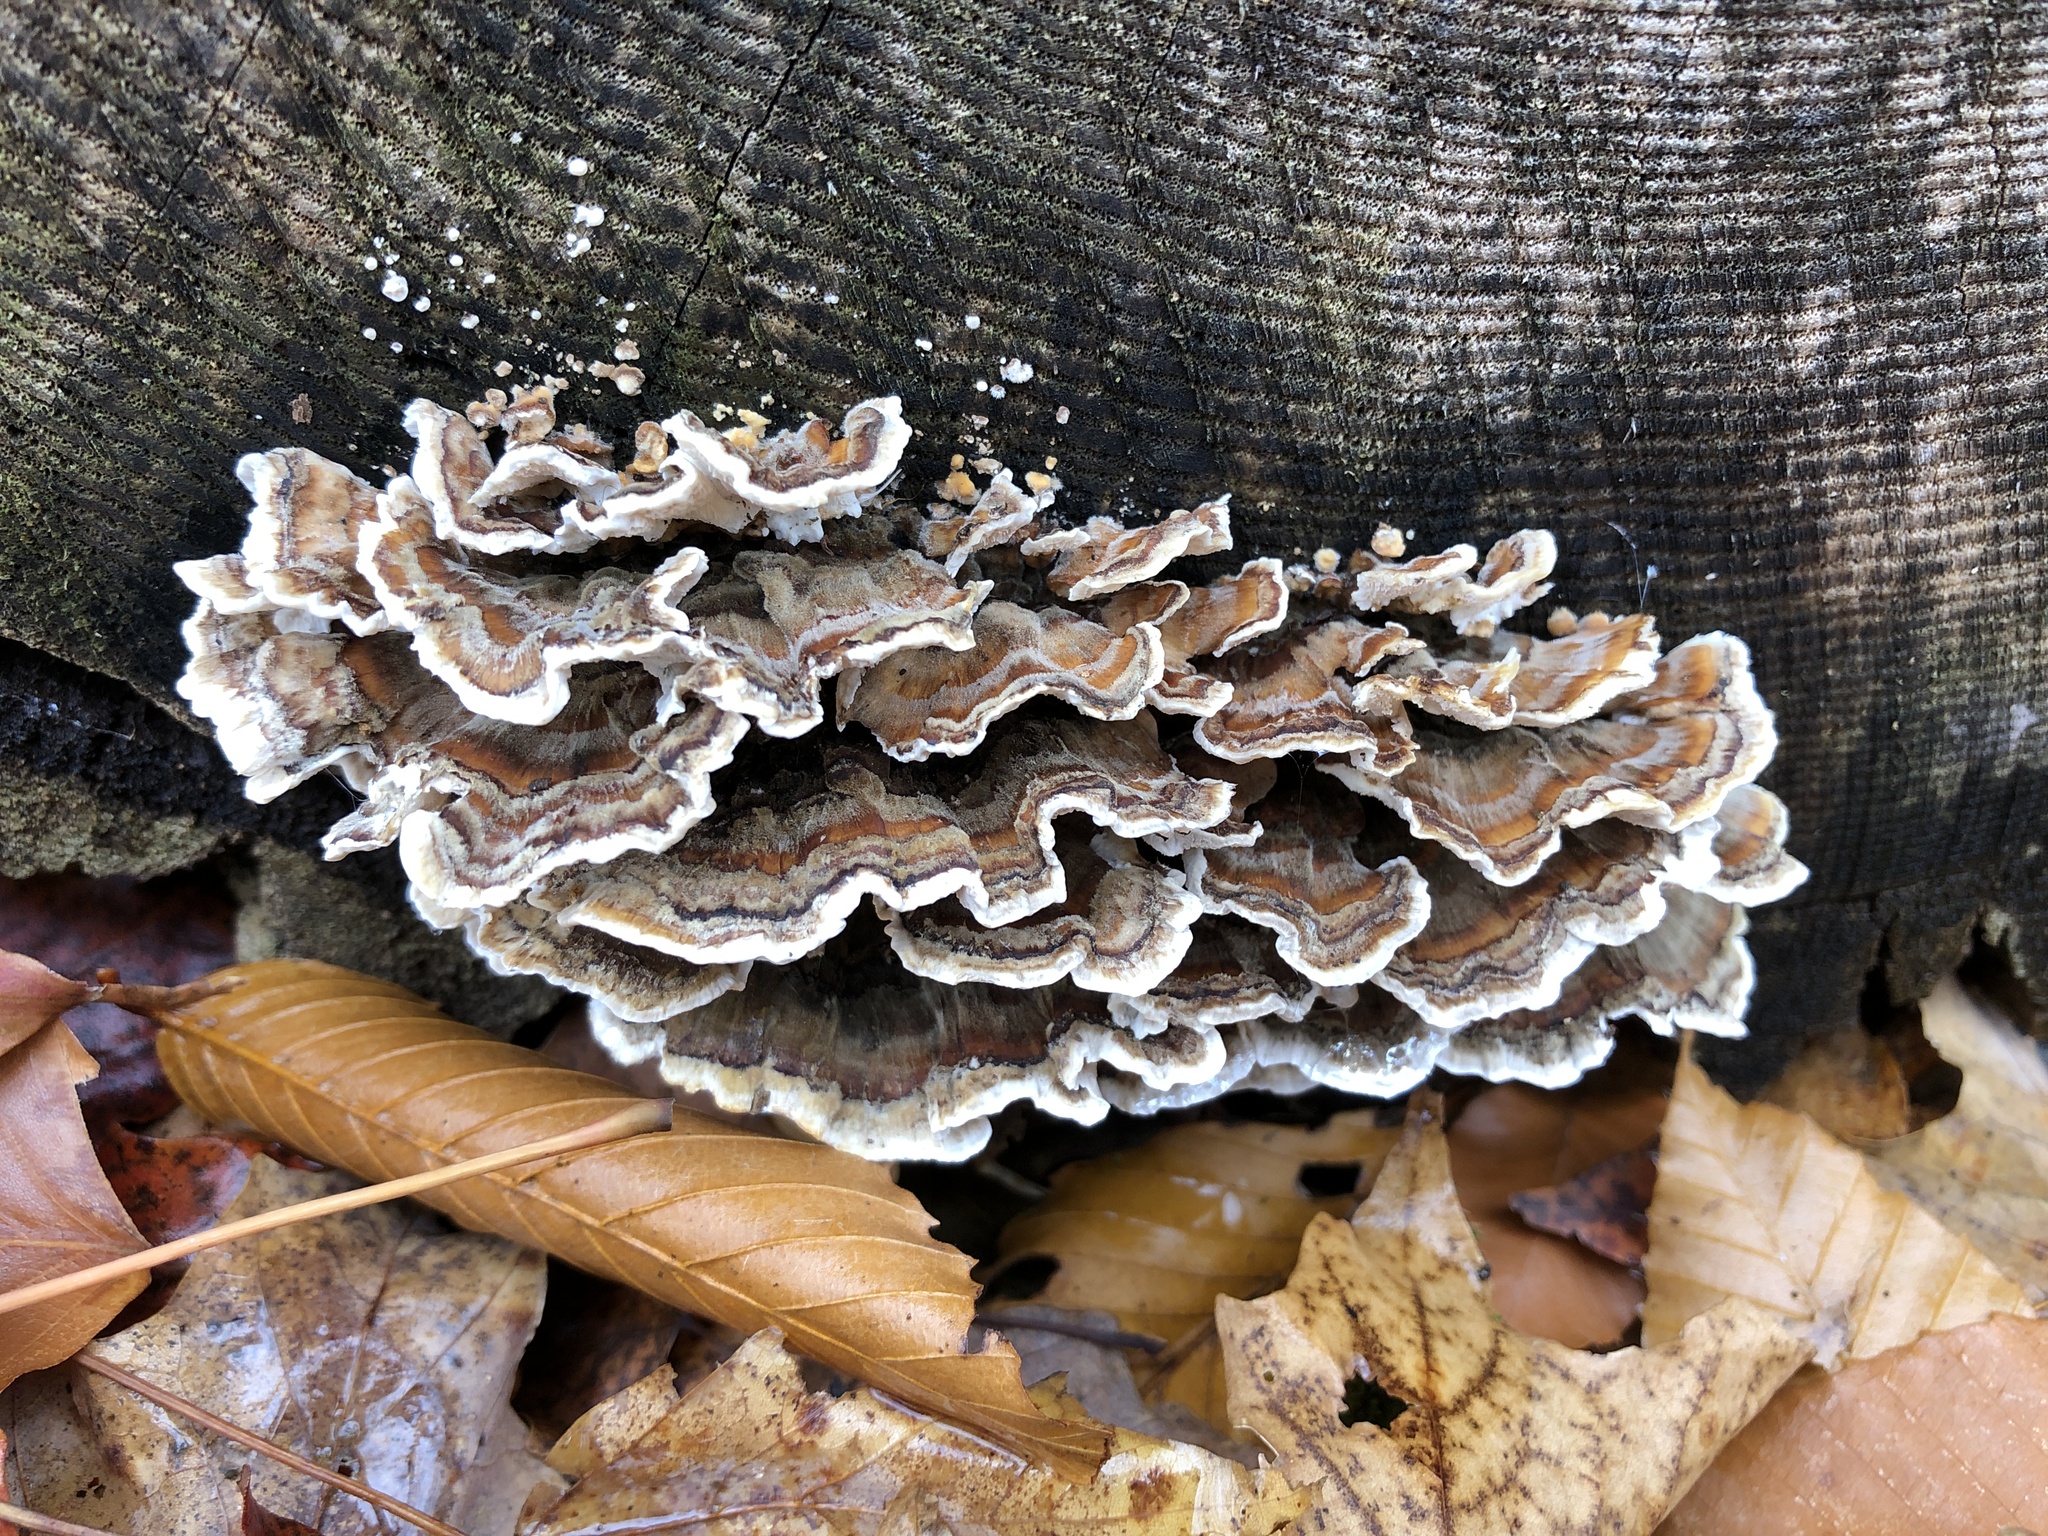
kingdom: Fungi
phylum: Basidiomycota
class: Agaricomycetes
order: Polyporales
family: Polyporaceae
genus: Trametes
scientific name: Trametes versicolor
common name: Turkeytail
